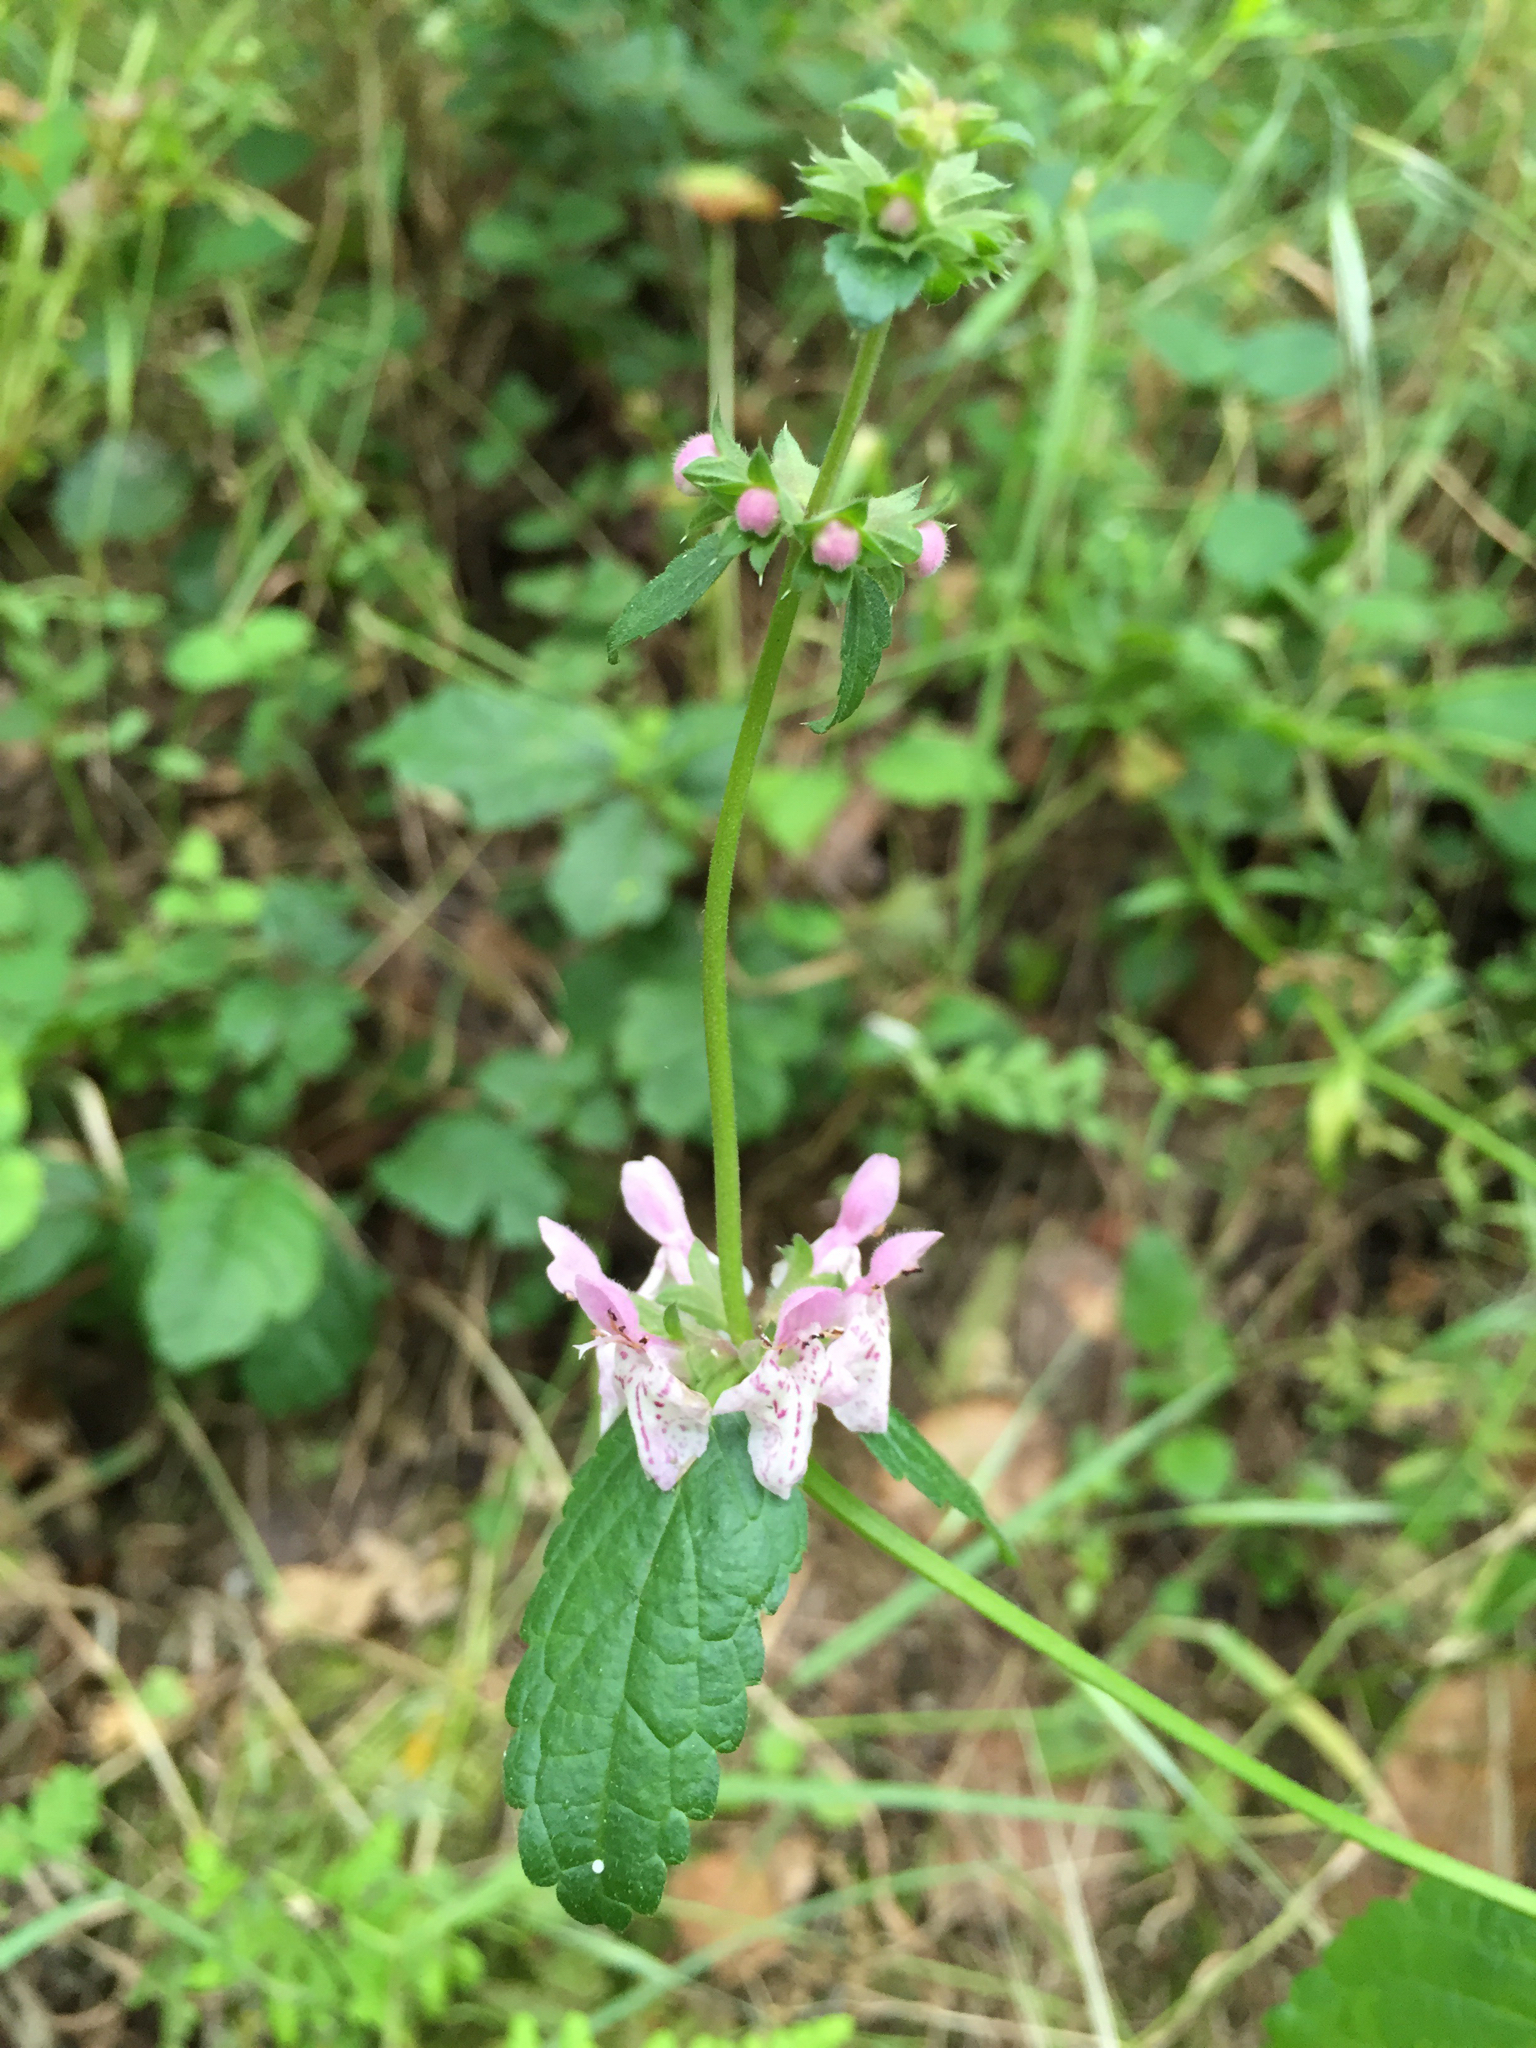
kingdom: Plantae
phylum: Tracheophyta
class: Magnoliopsida
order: Lamiales
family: Lamiaceae
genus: Stachys
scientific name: Stachys rigida
